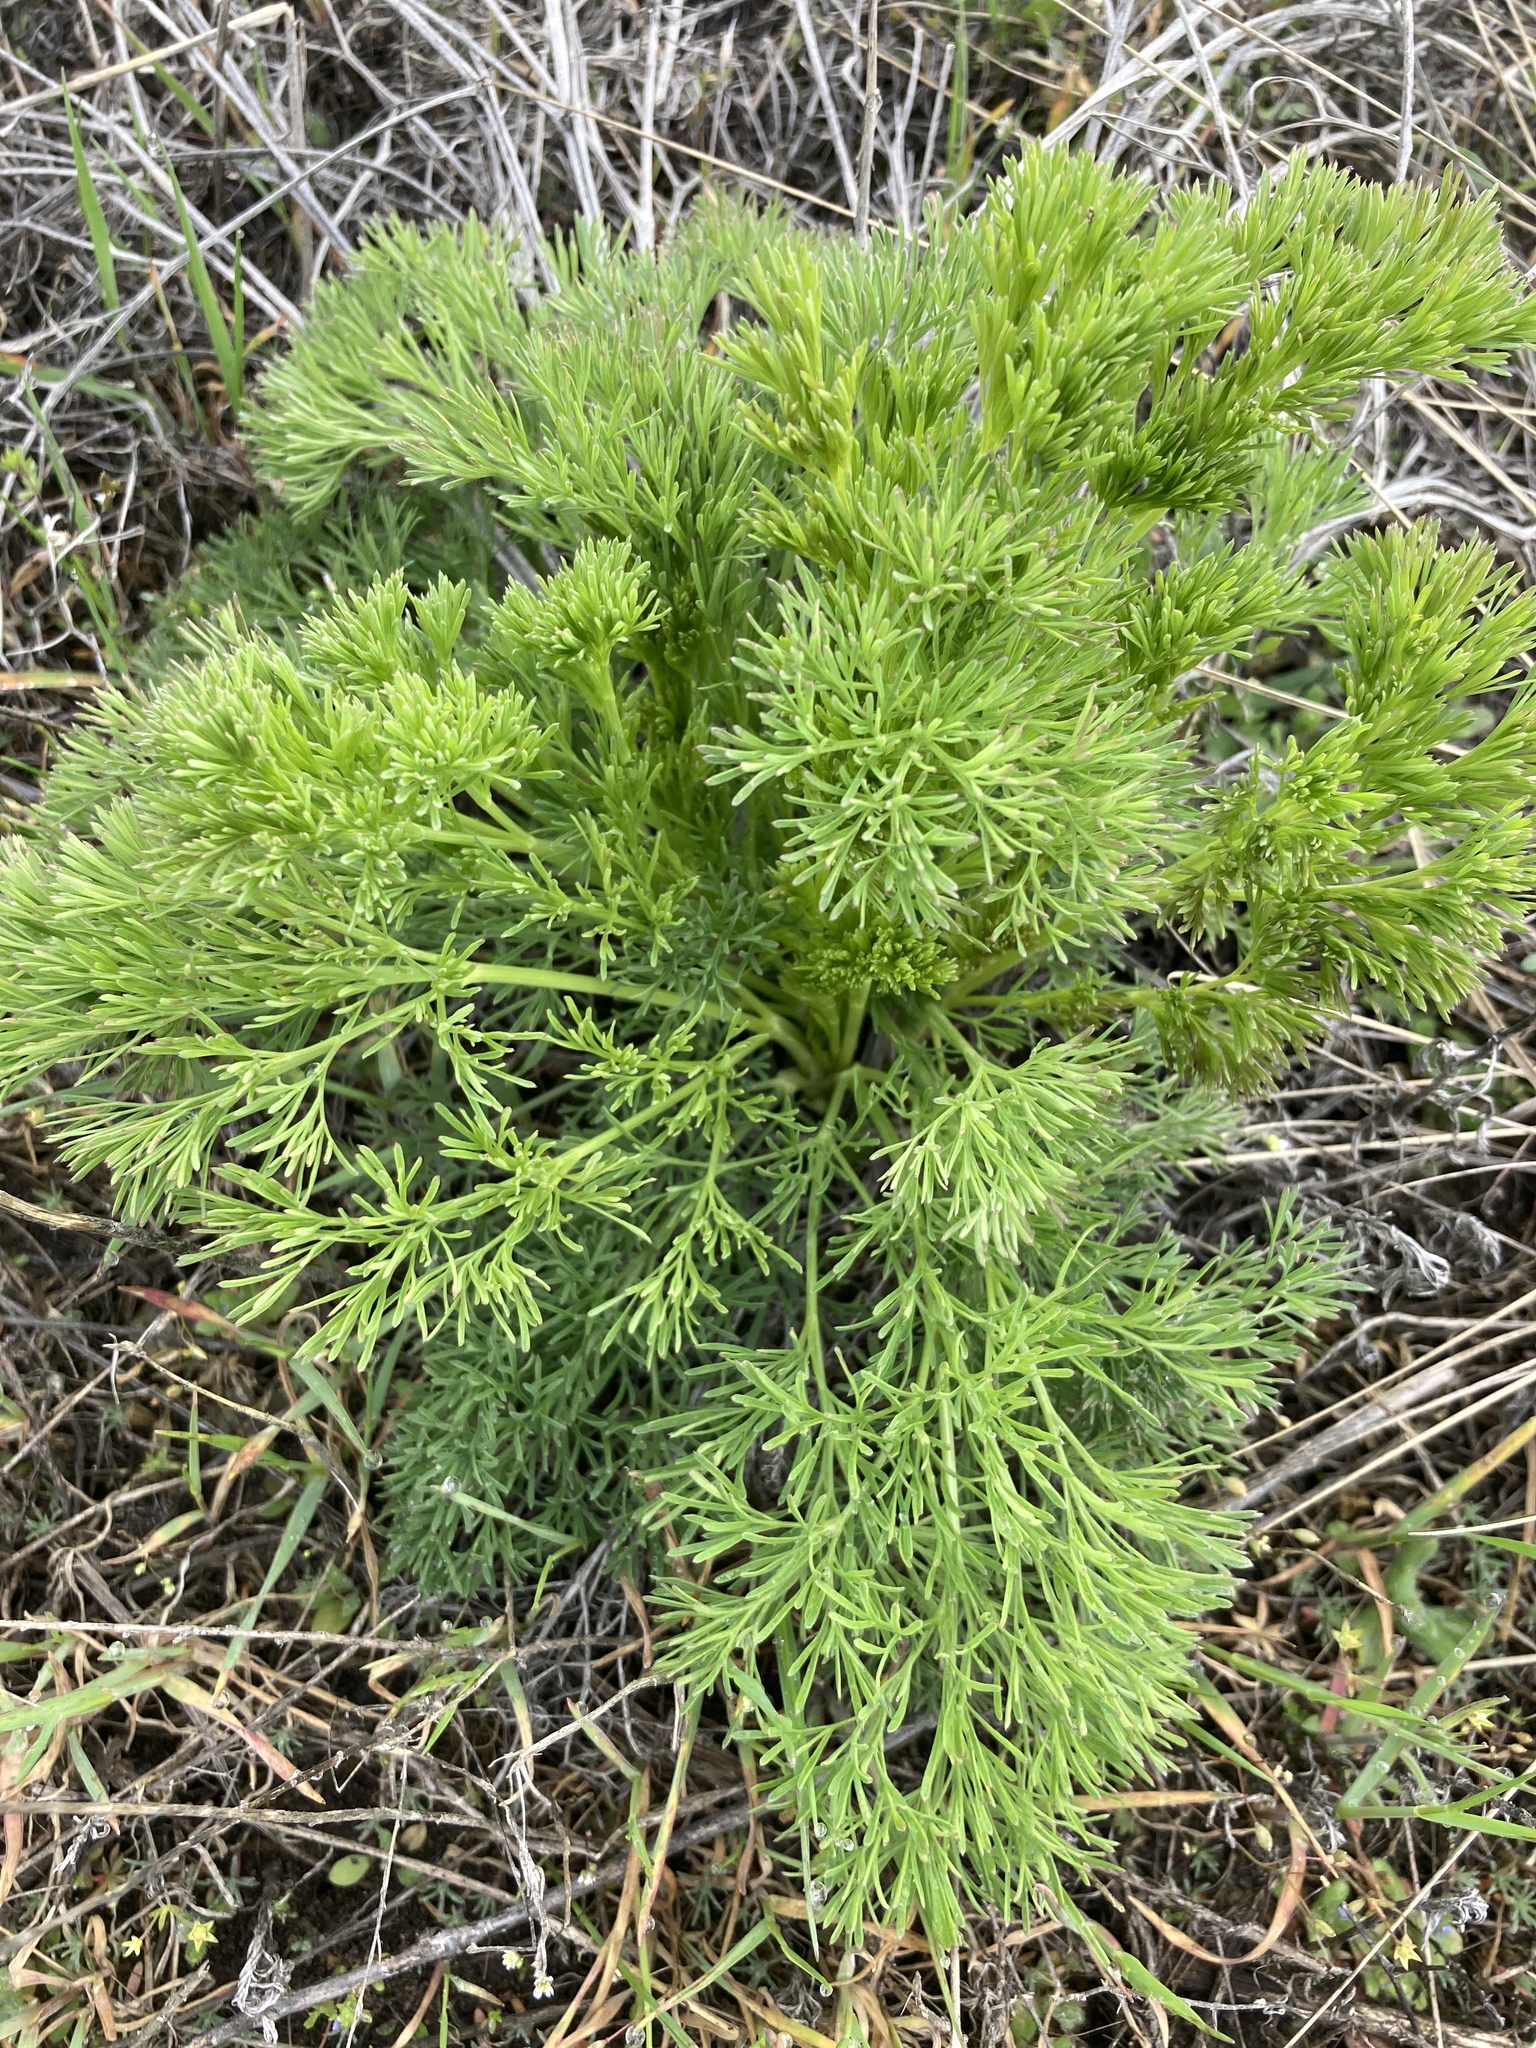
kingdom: Plantae
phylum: Tracheophyta
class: Magnoliopsida
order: Apiales
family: Apiaceae
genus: Seseli
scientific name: Seseli arenarium
